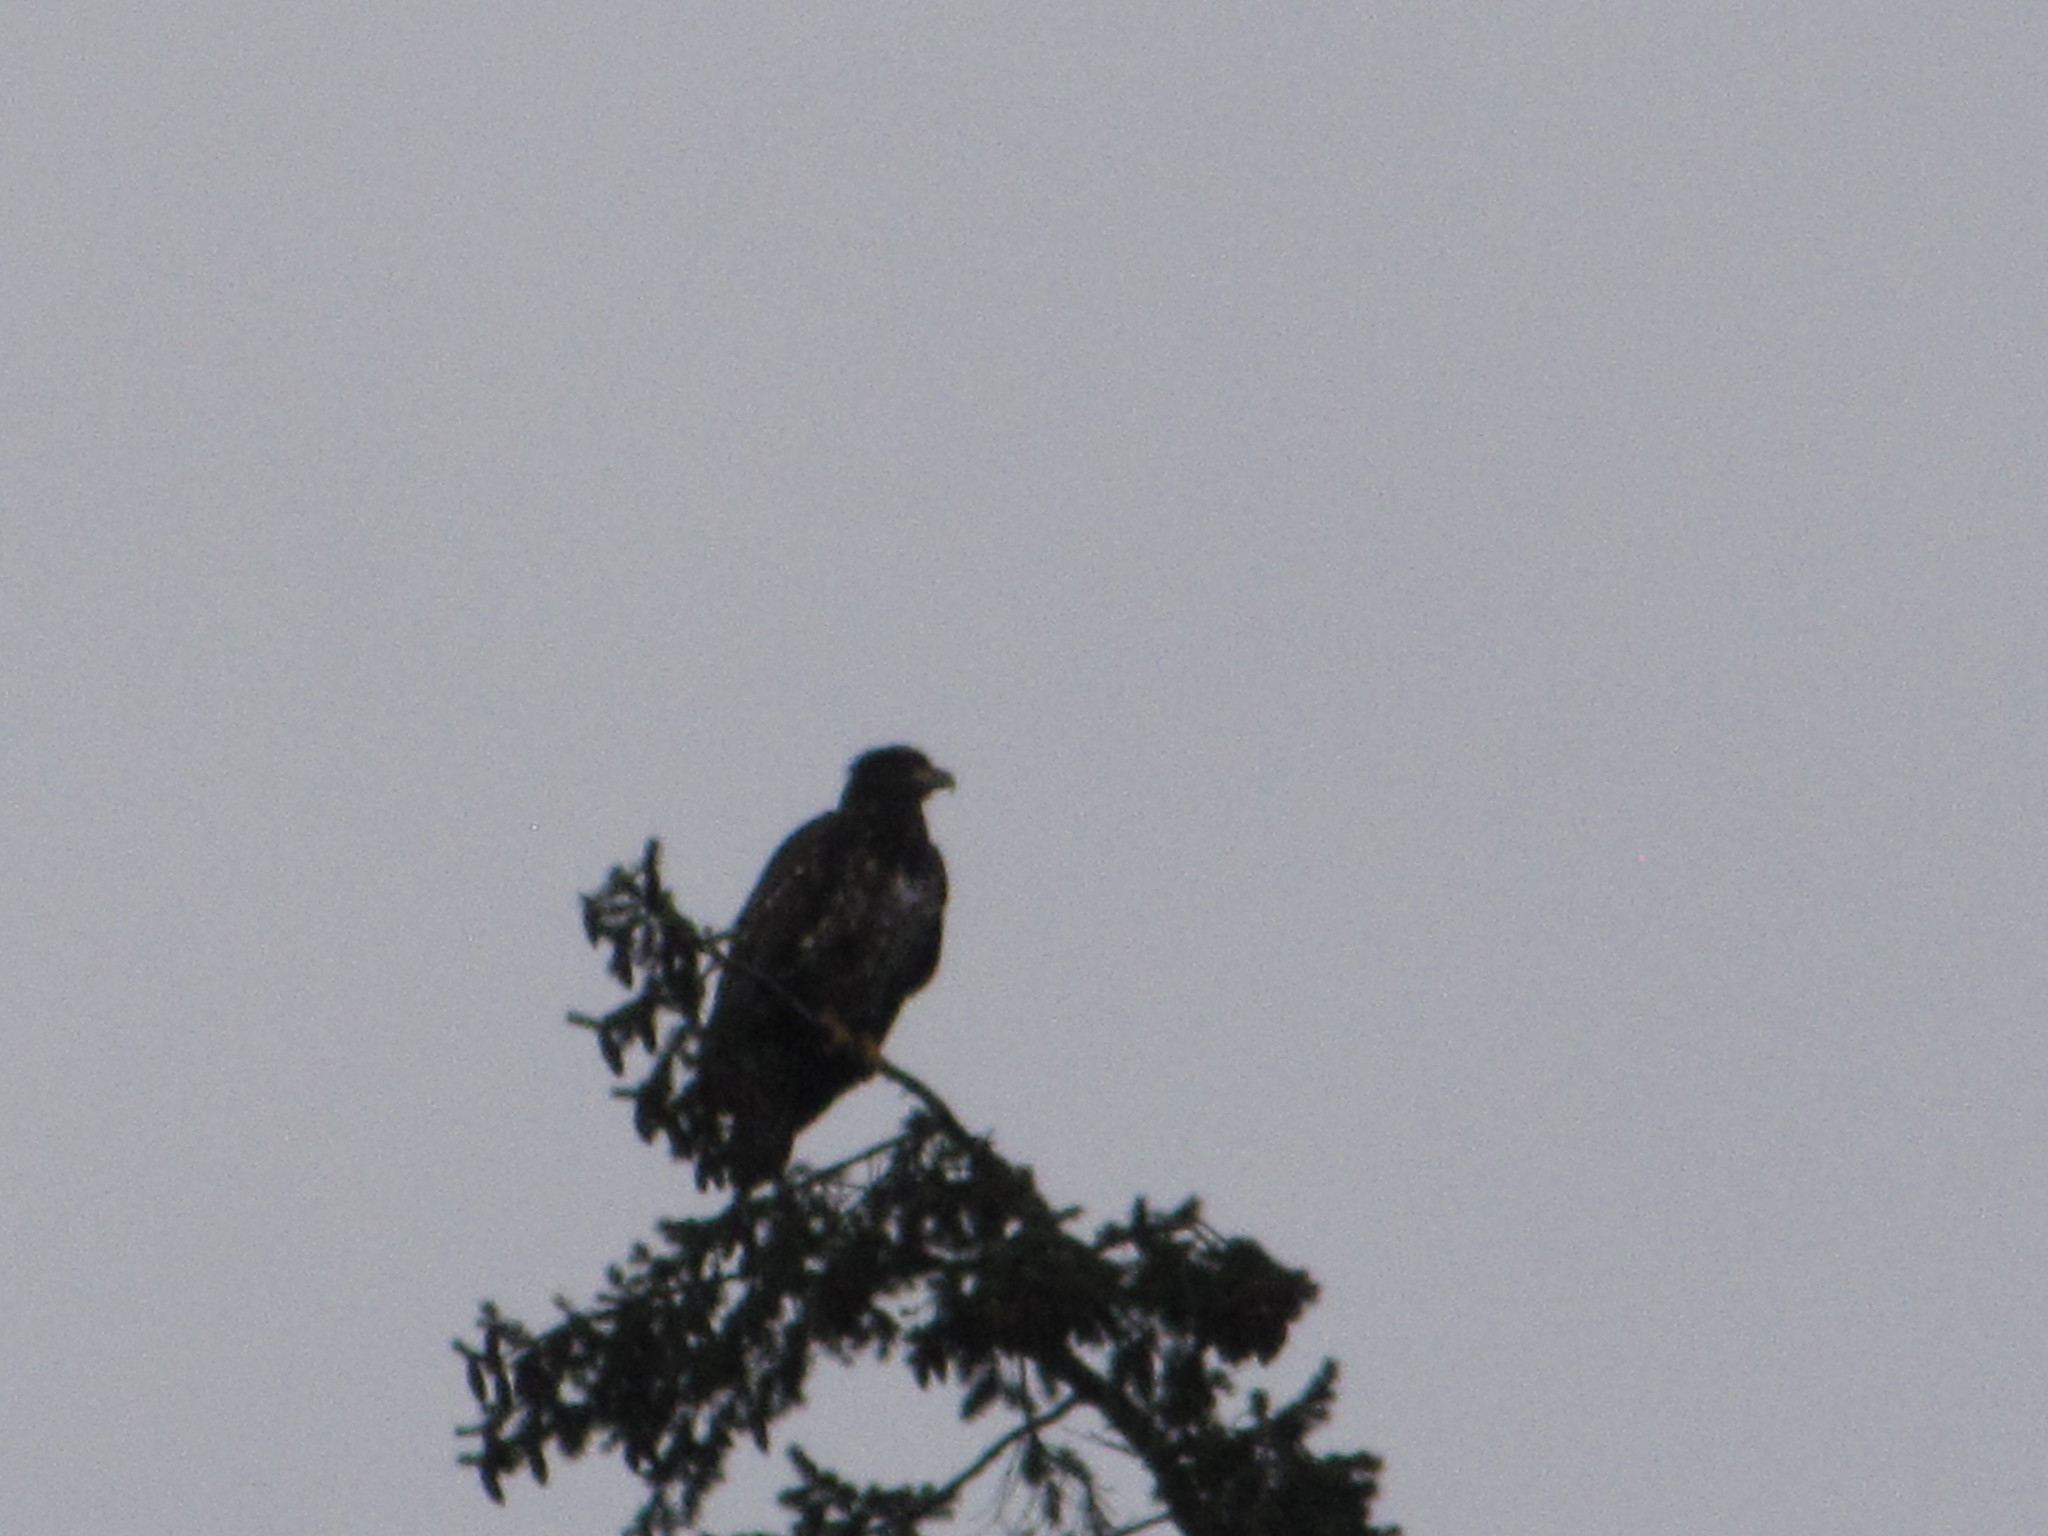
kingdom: Animalia
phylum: Chordata
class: Aves
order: Accipitriformes
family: Accipitridae
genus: Haliaeetus
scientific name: Haliaeetus leucocephalus
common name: Bald eagle
